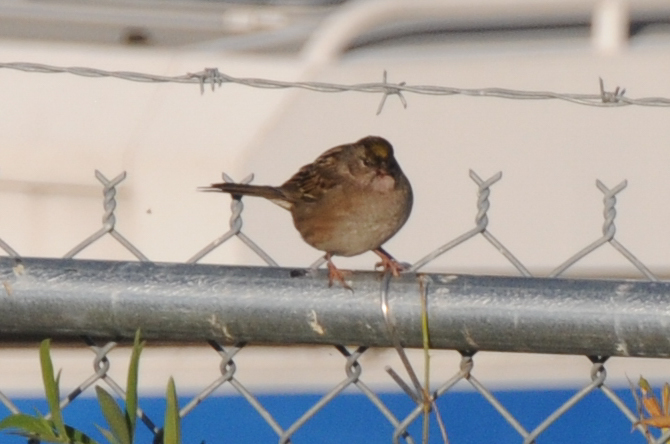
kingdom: Animalia
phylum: Chordata
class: Aves
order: Passeriformes
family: Passerellidae
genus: Zonotrichia
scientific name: Zonotrichia atricapilla
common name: Golden-crowned sparrow
